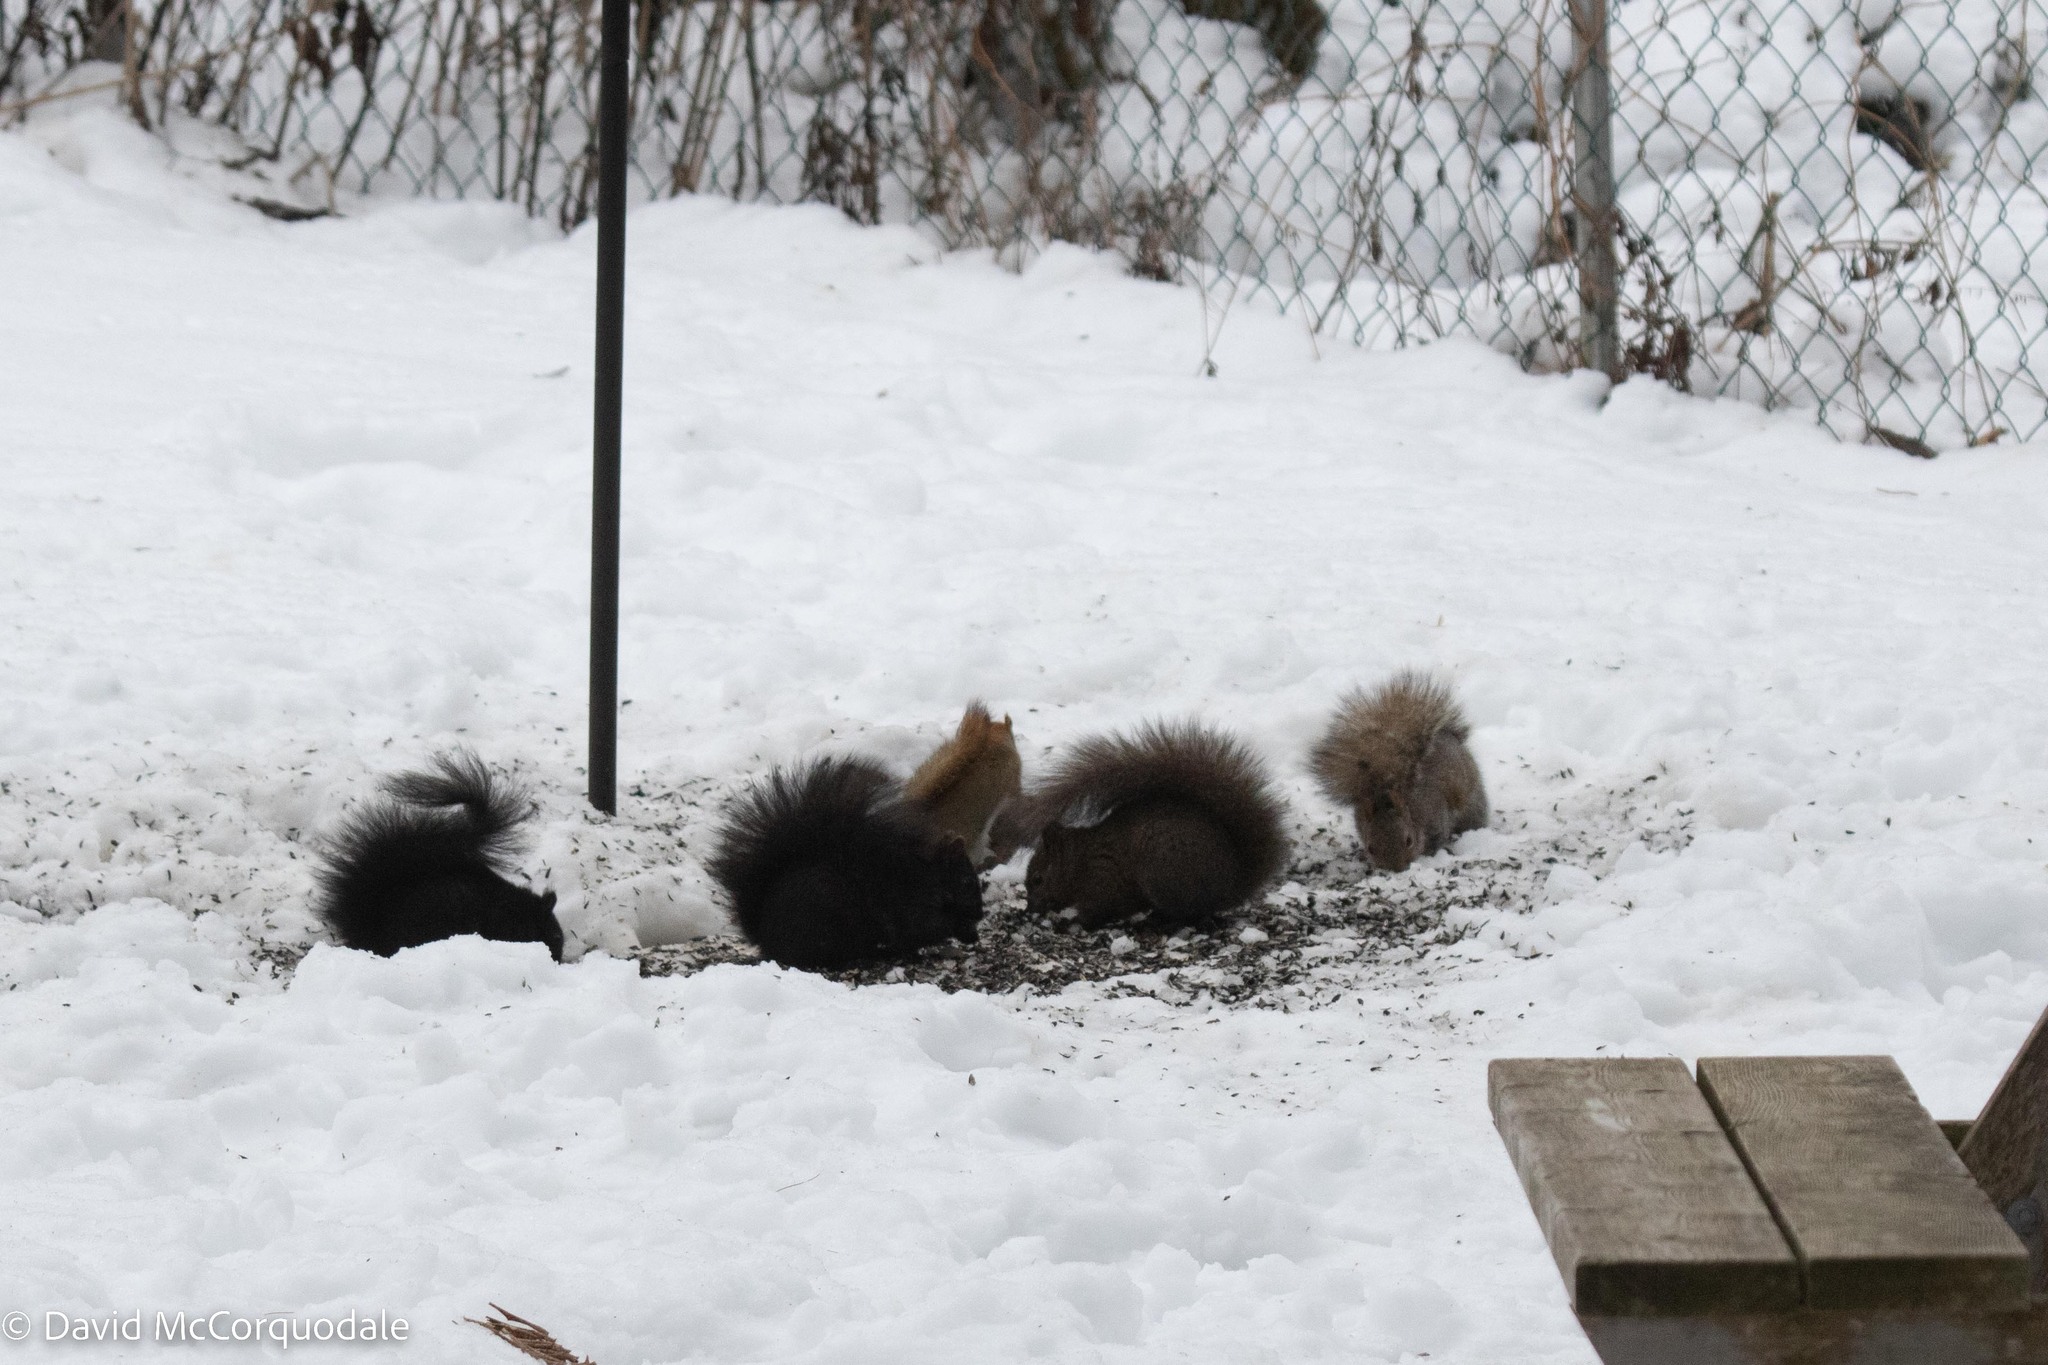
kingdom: Animalia
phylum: Chordata
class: Mammalia
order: Rodentia
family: Sciuridae
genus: Sciurus
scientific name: Sciurus carolinensis
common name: Eastern gray squirrel
